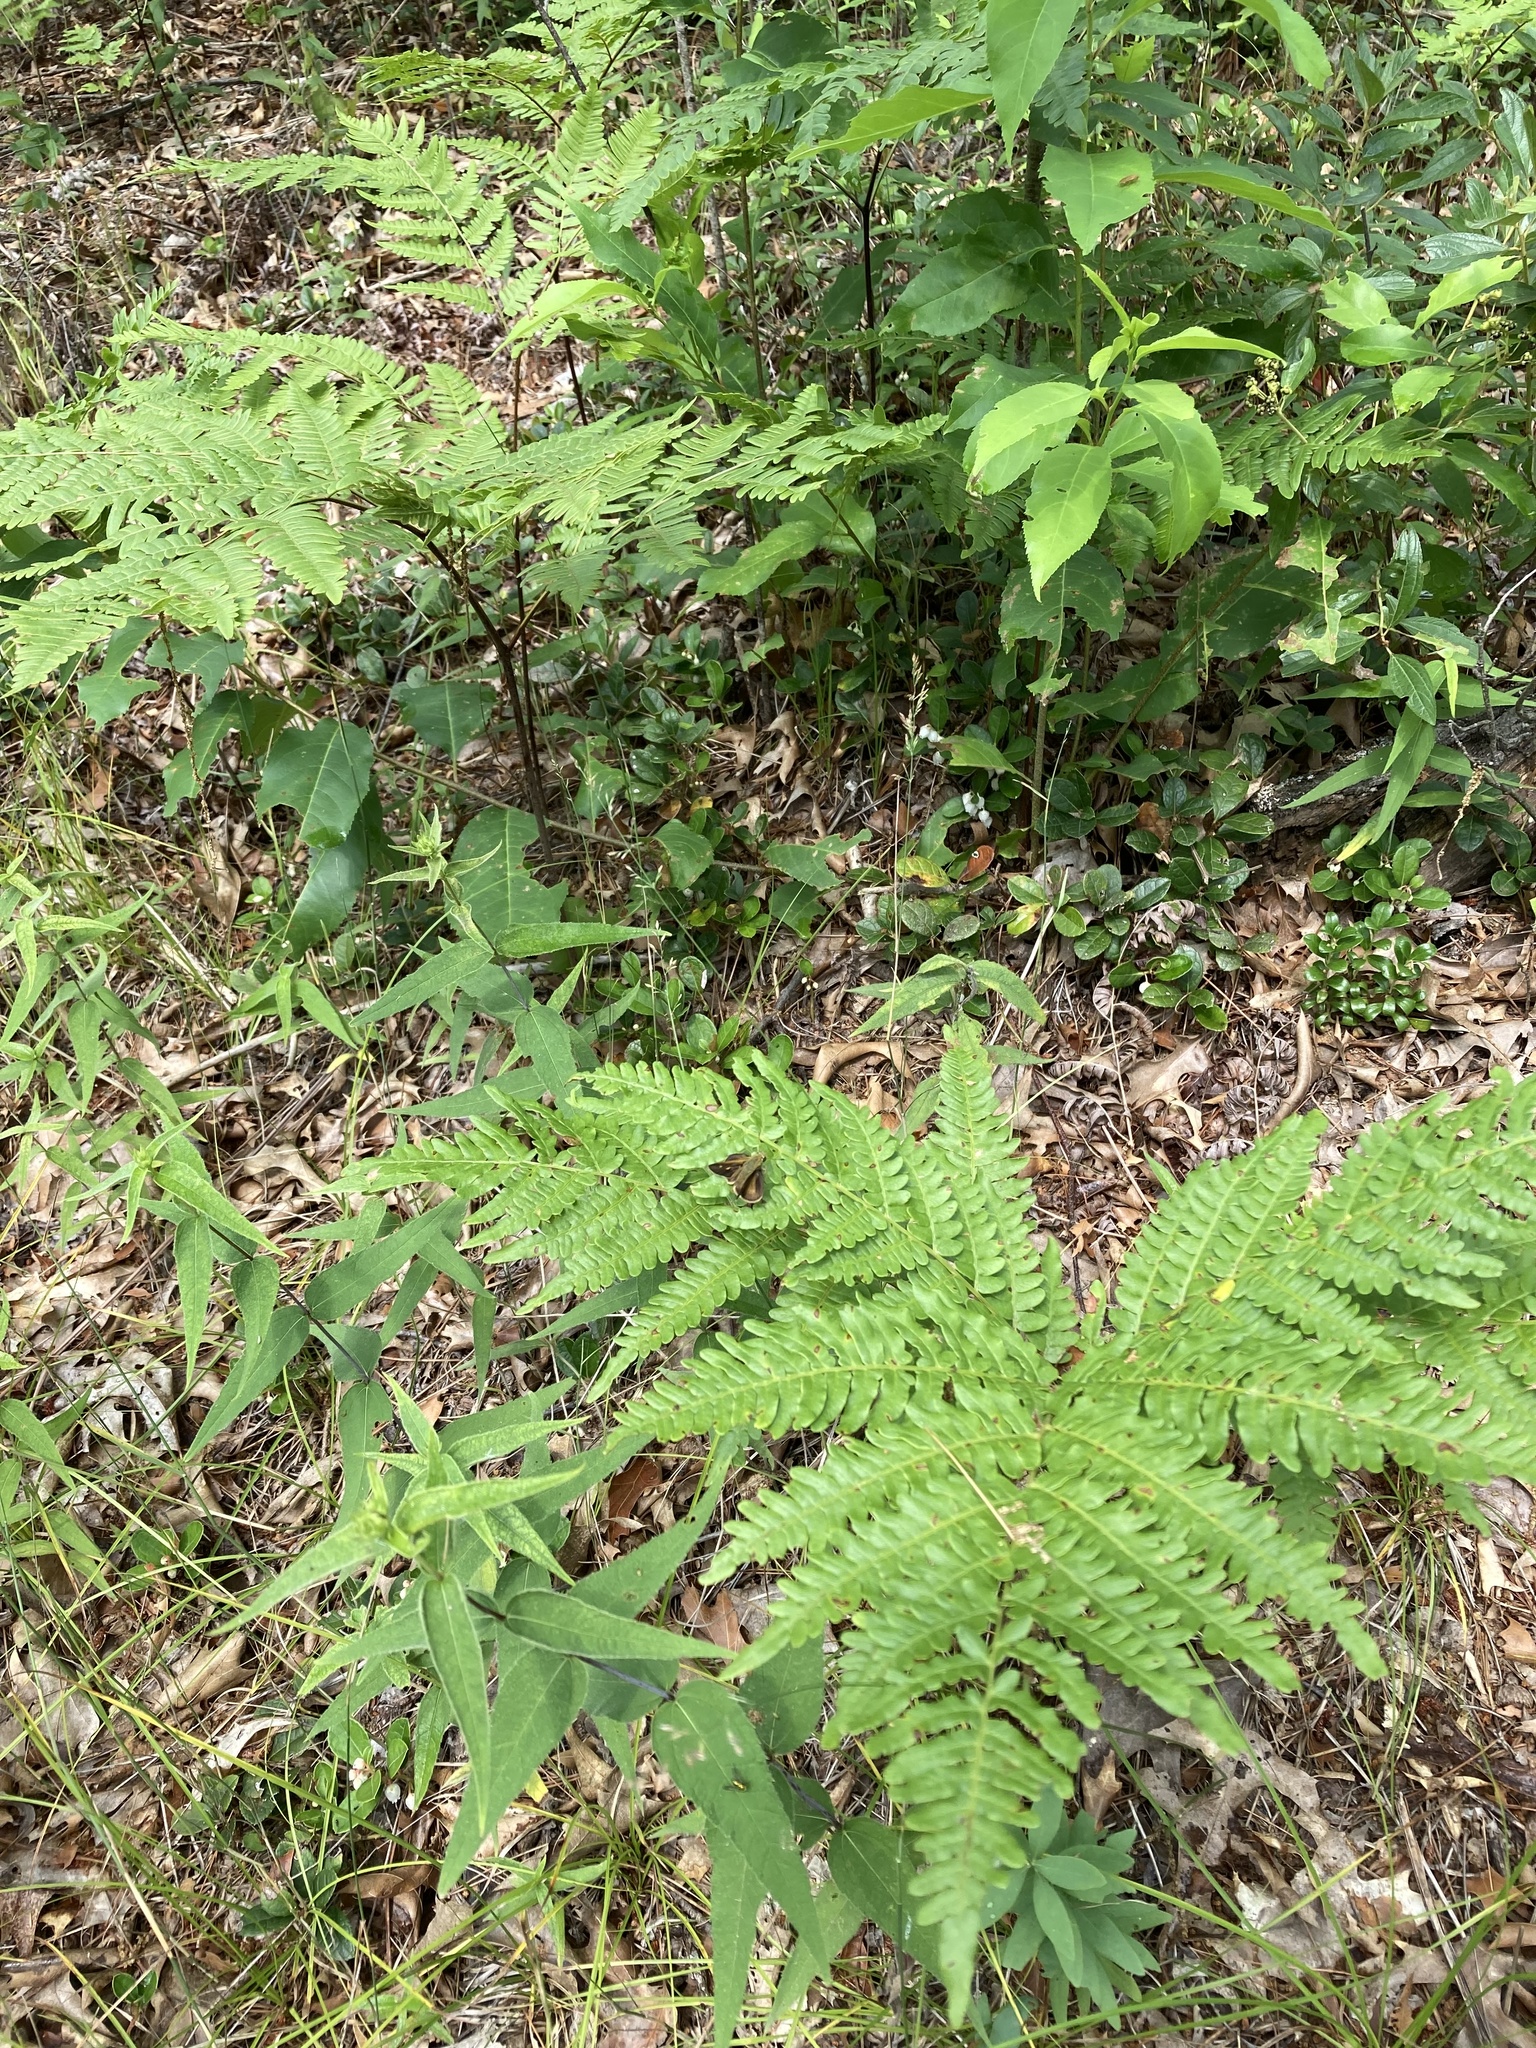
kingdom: Animalia
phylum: Arthropoda
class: Insecta
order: Lepidoptera
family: Hesperiidae
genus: Polites
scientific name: Polites egeremet
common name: Northern broken-dash
